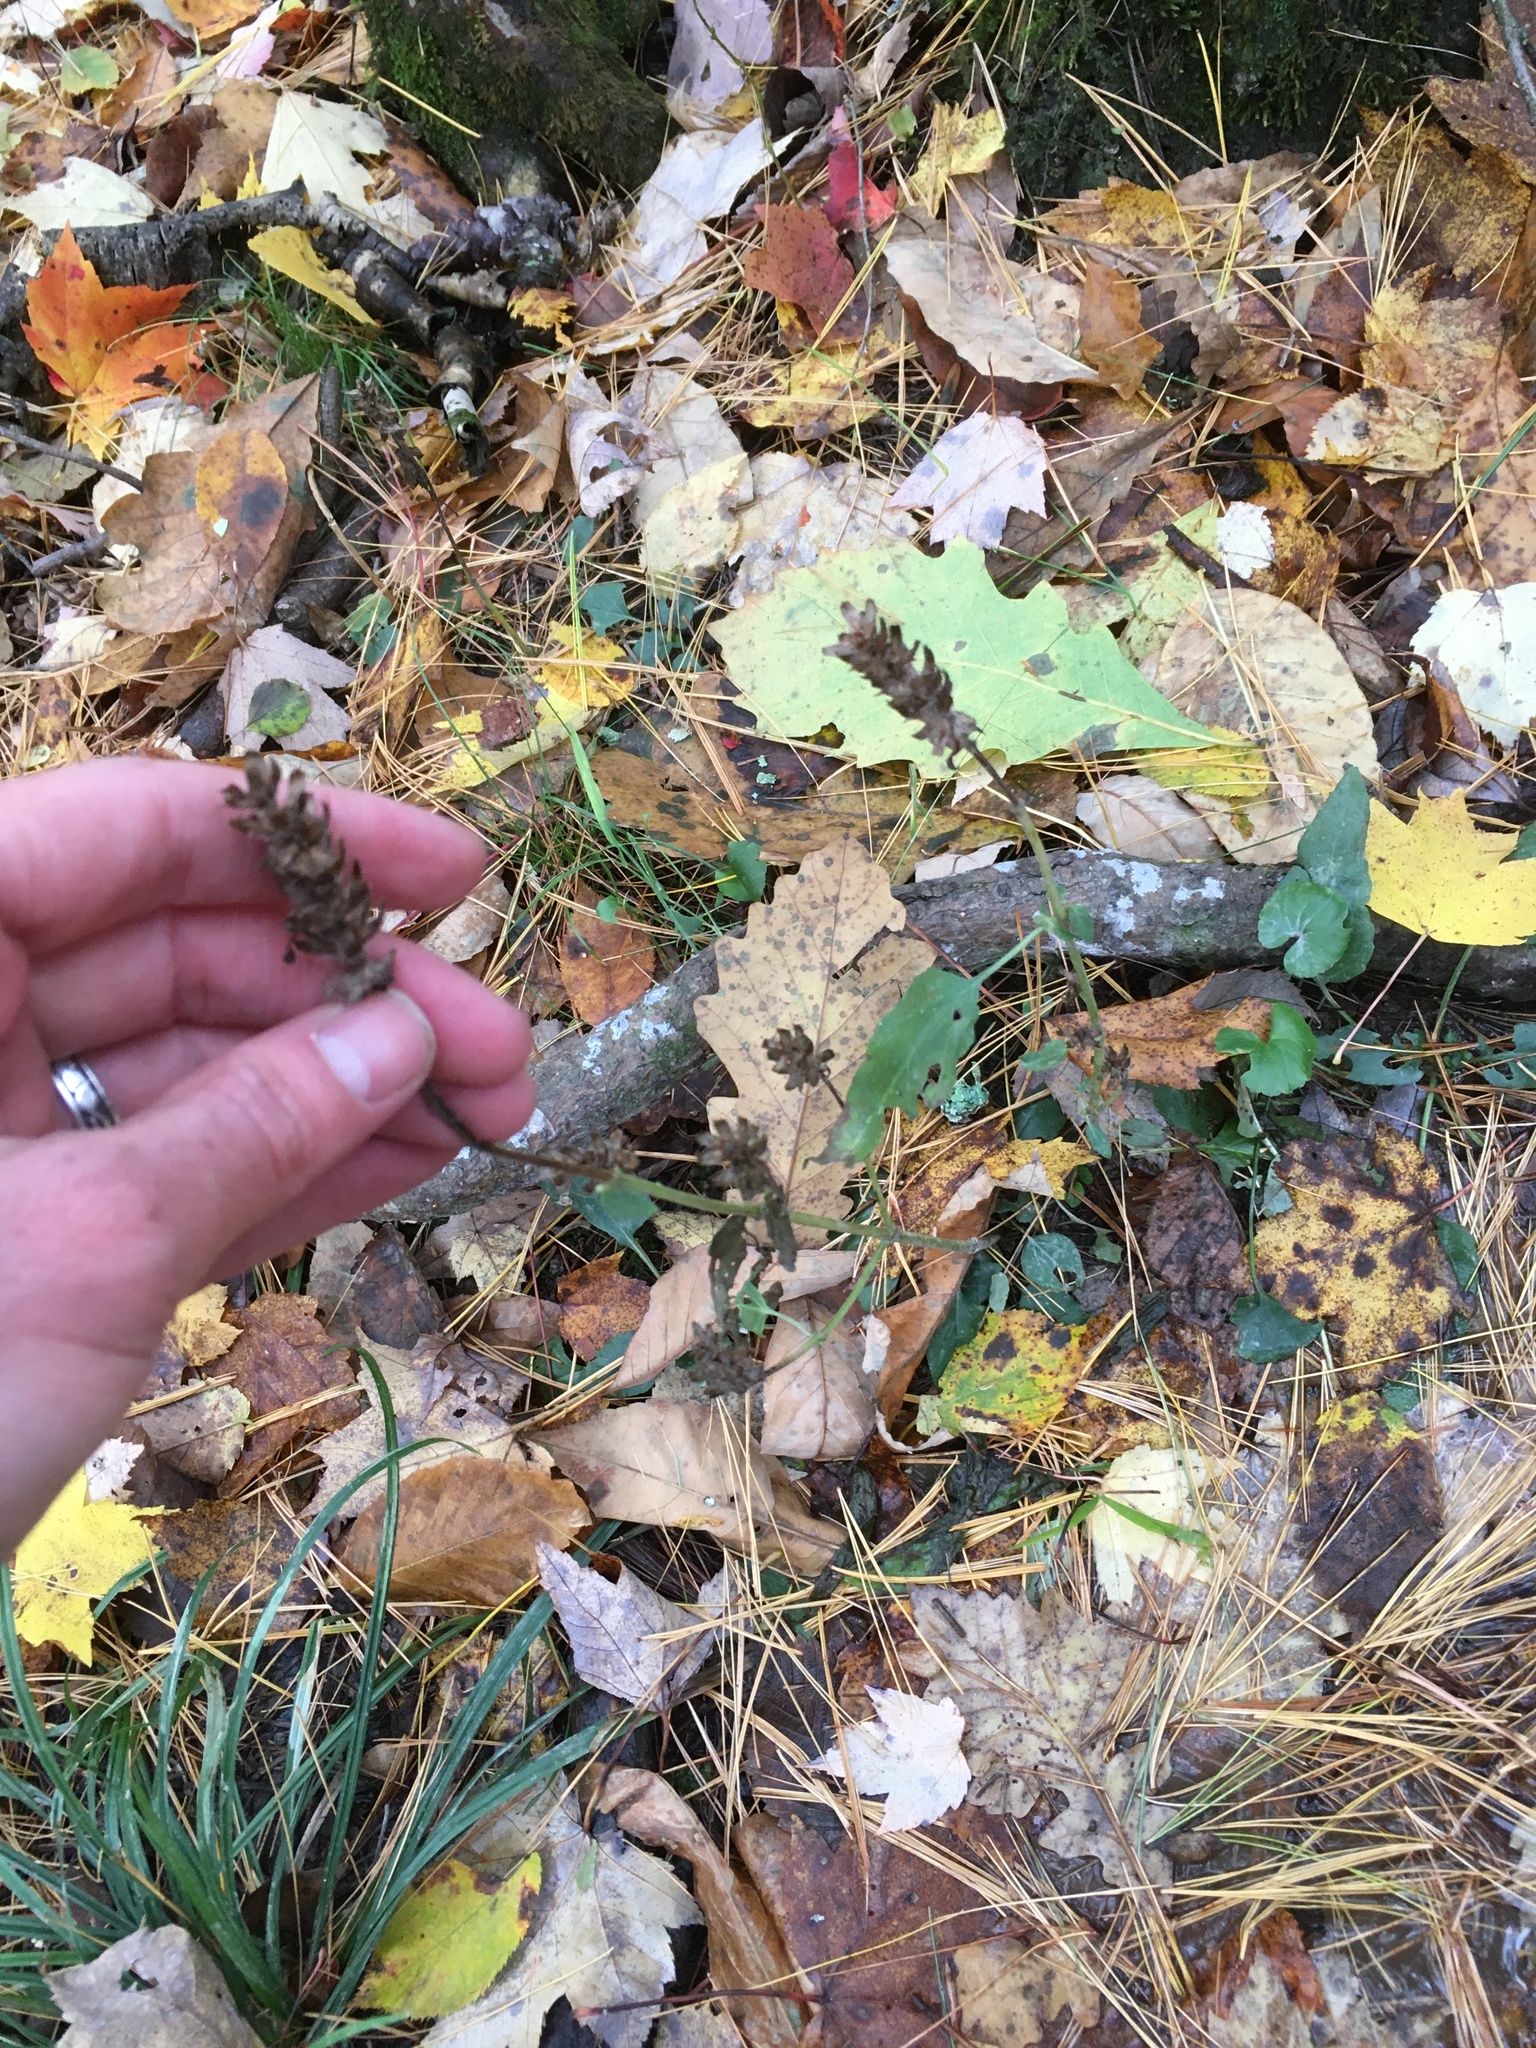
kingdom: Plantae
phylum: Tracheophyta
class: Magnoliopsida
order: Lamiales
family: Lamiaceae
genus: Prunella
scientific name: Prunella vulgaris
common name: Heal-all
